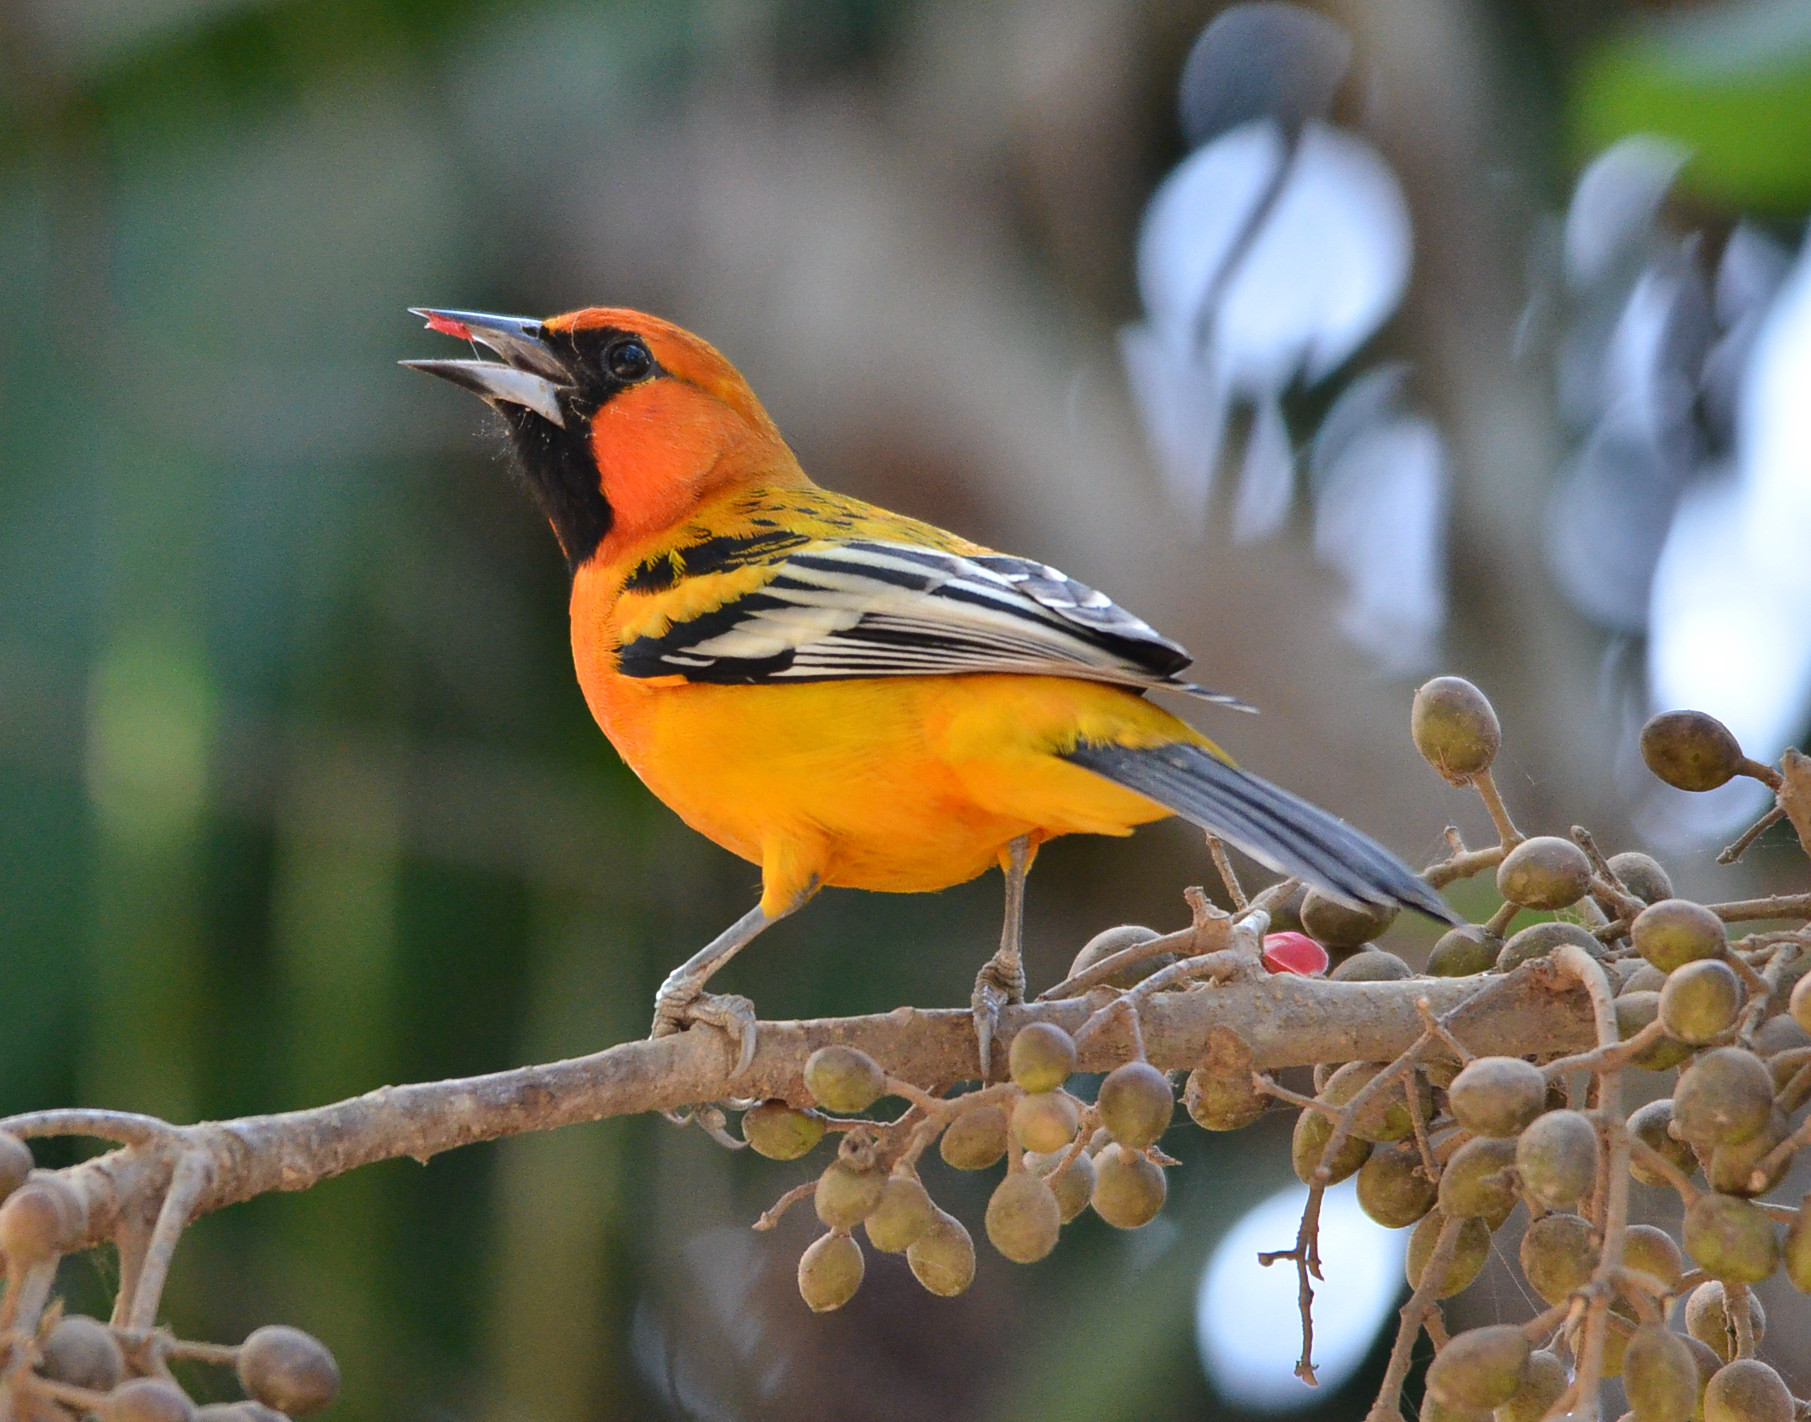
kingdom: Animalia
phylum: Chordata
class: Aves
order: Passeriformes
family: Icteridae
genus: Icterus
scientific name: Icterus pustulatus
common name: Streak-backed oriole
